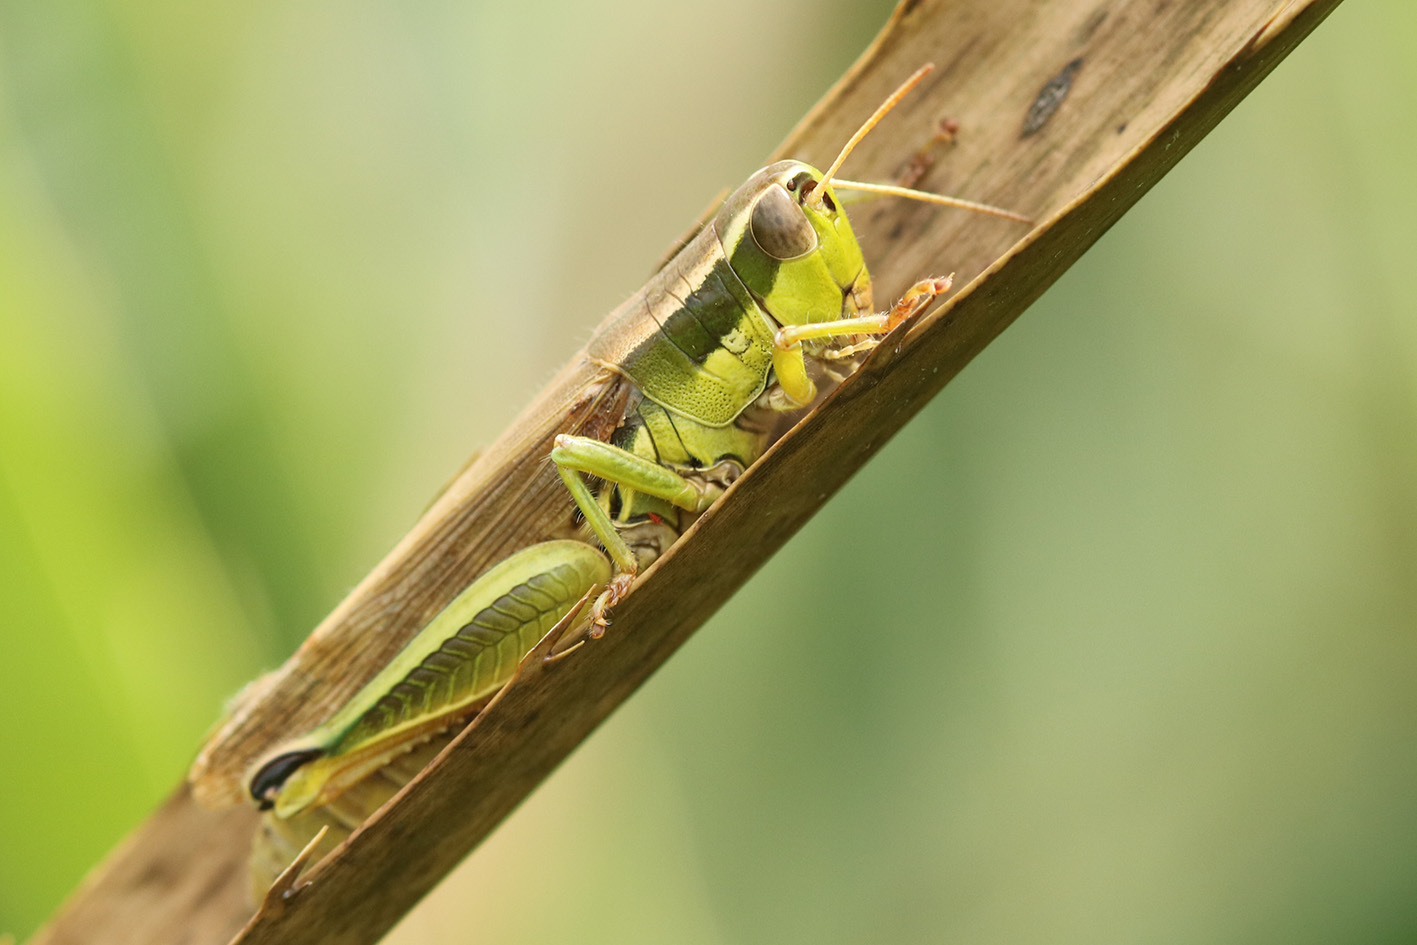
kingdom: Animalia
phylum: Arthropoda
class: Insecta
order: Orthoptera
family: Acrididae
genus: Scotussa
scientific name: Scotussa cliens
